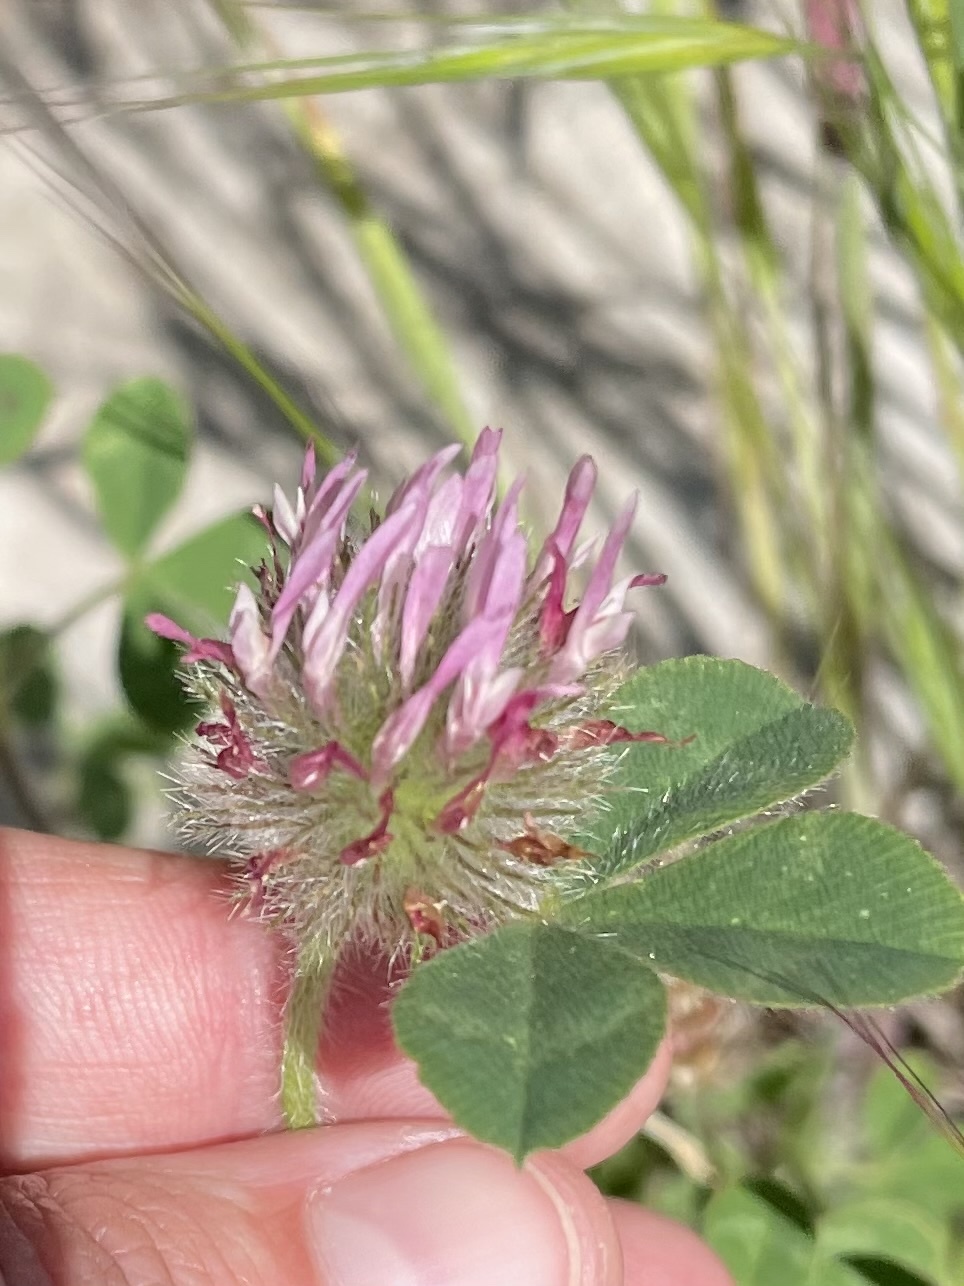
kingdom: Plantae
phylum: Tracheophyta
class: Magnoliopsida
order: Fabales
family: Fabaceae
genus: Trifolium
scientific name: Trifolium hirtum
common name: Rose clover
